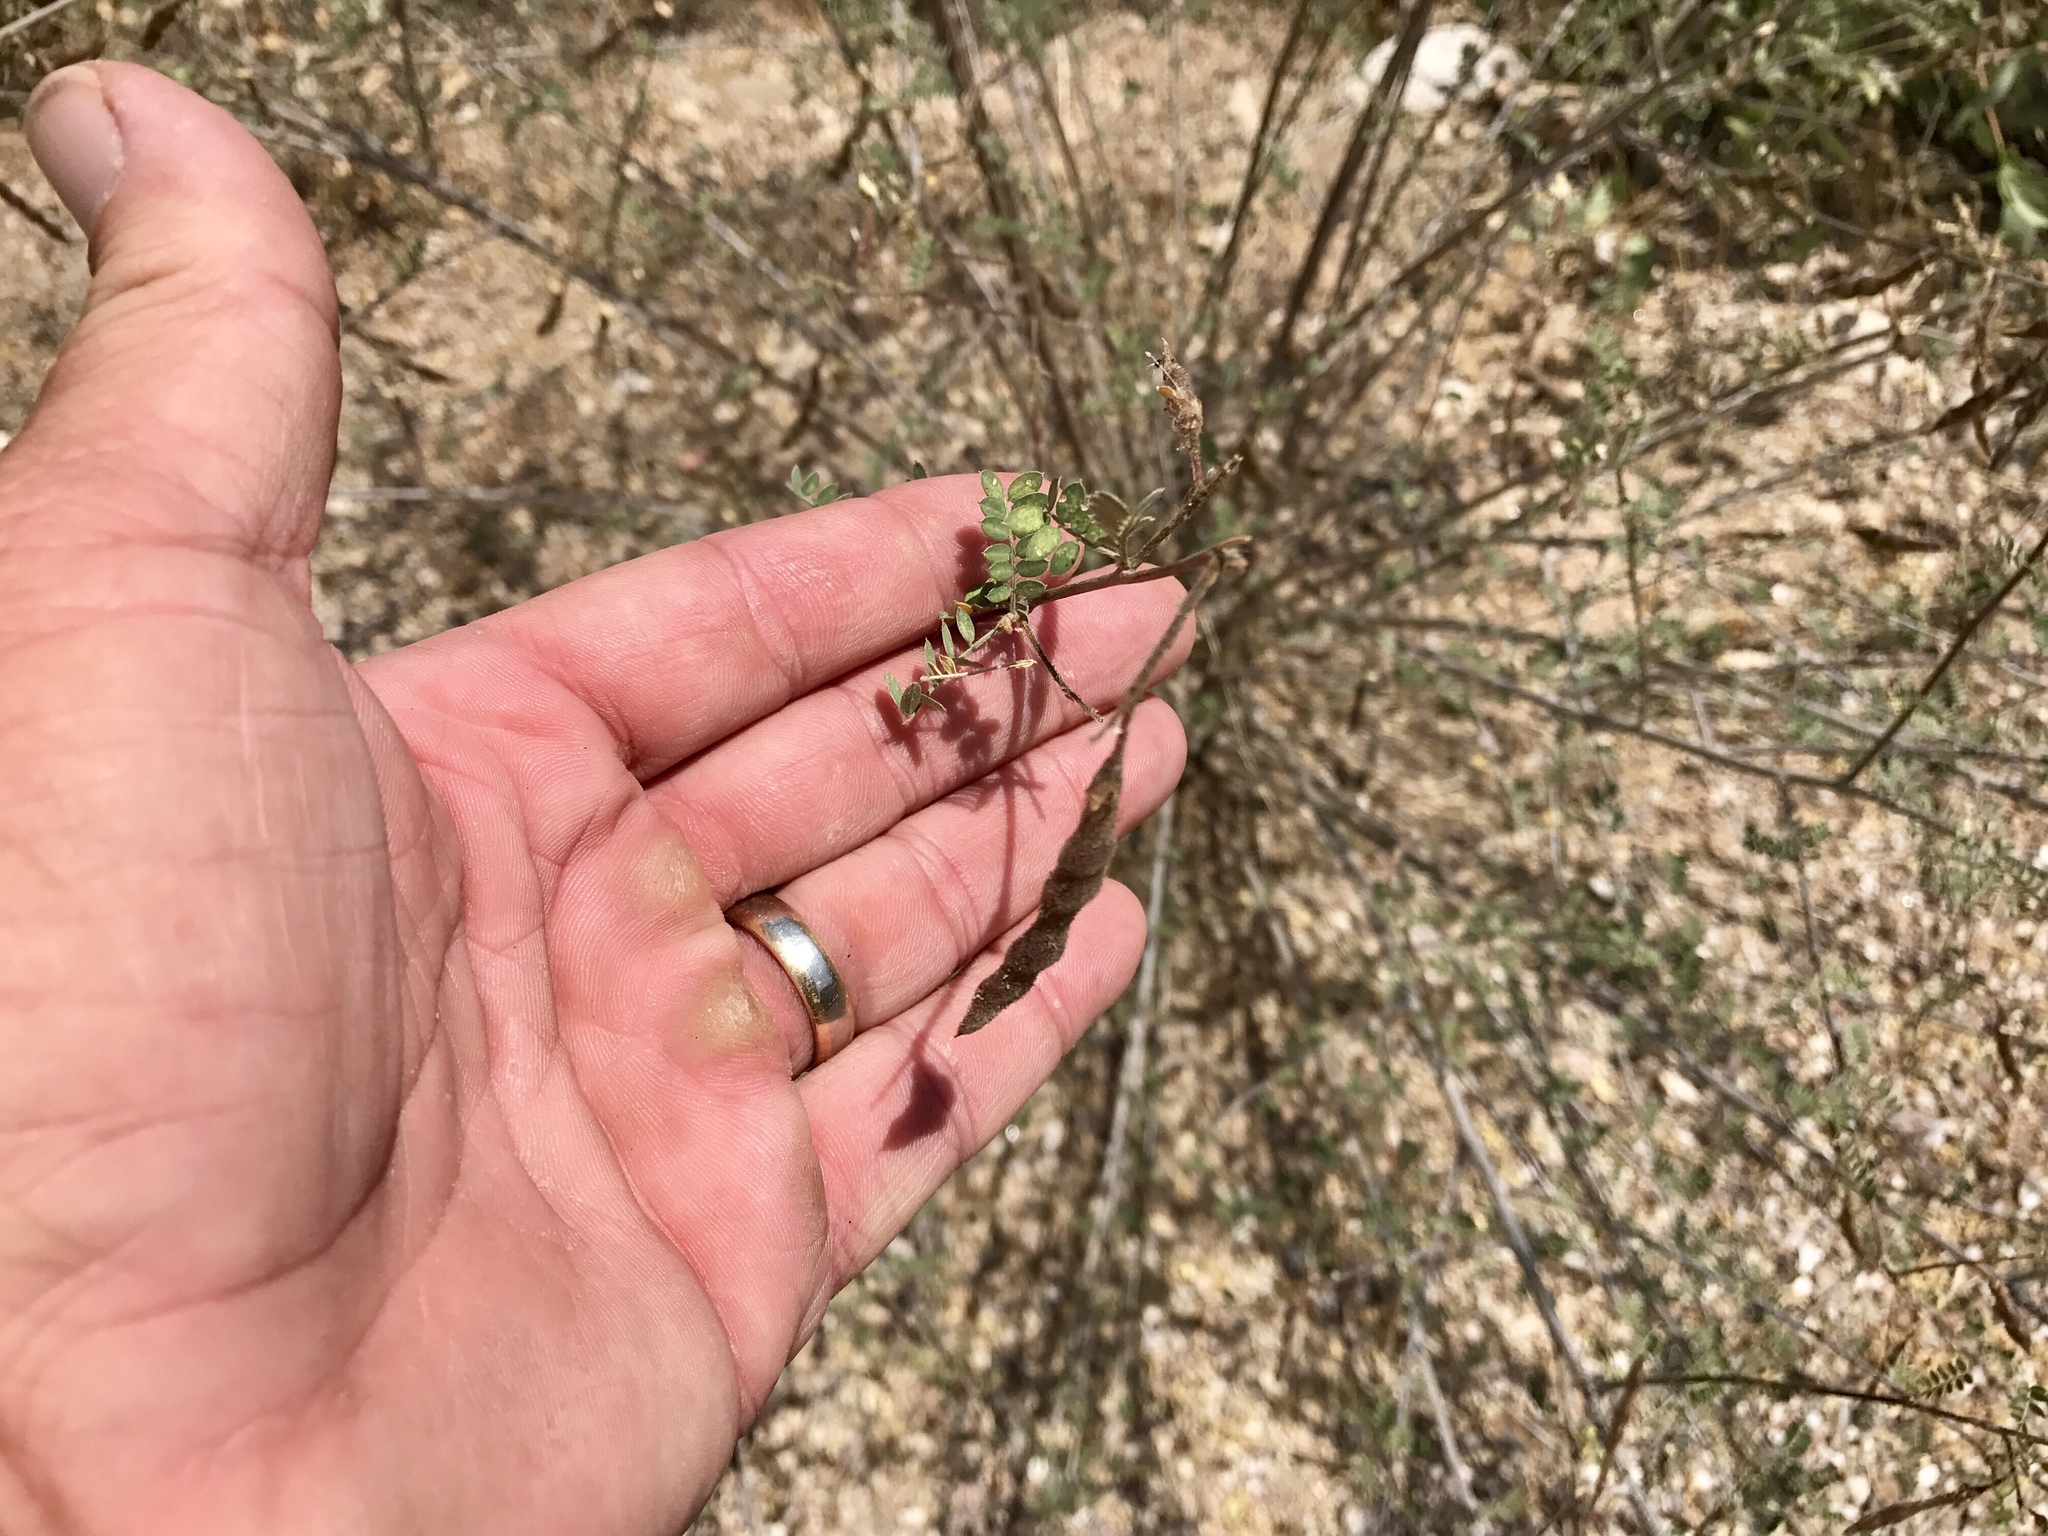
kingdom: Plantae
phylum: Tracheophyta
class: Magnoliopsida
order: Fabales
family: Fabaceae
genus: Coursetia
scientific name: Coursetia glandulosa
